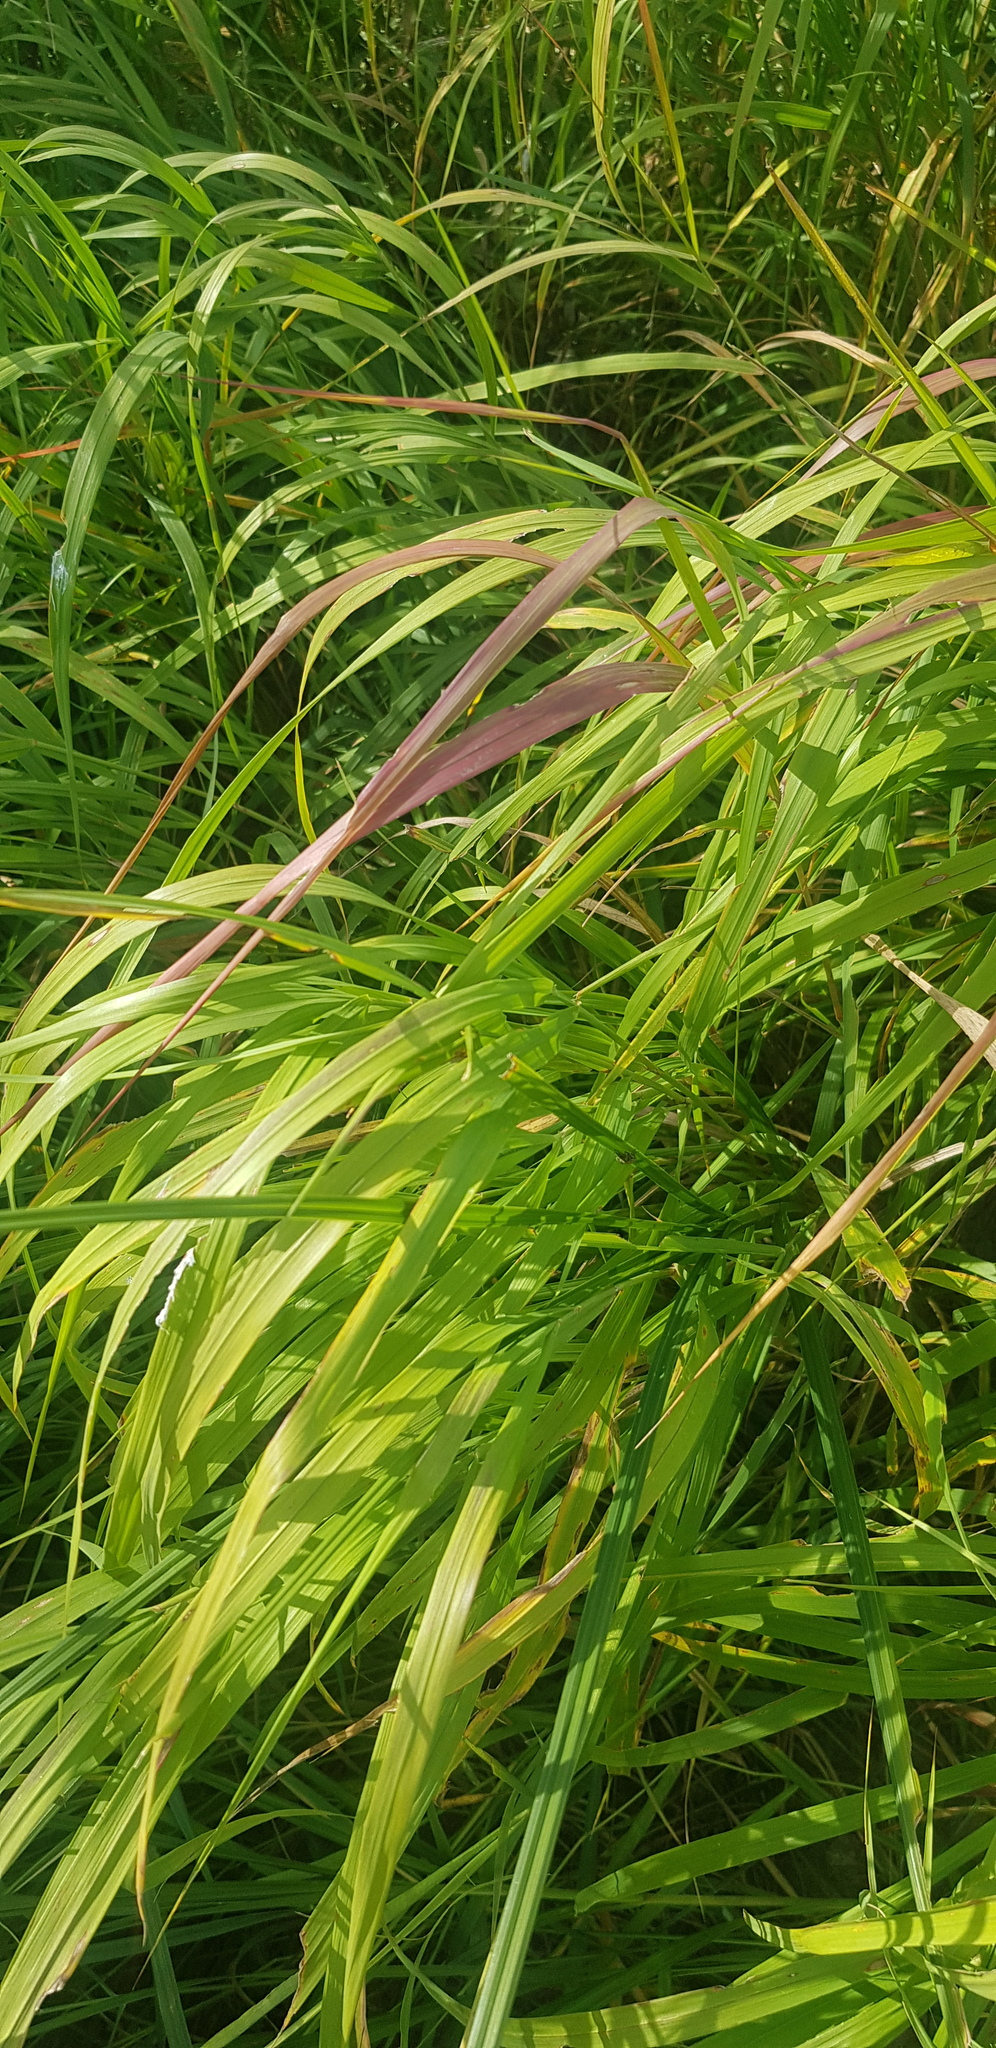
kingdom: Plantae
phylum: Tracheophyta
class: Liliopsida
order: Poales
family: Poaceae
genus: Oryza
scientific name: Oryza sativa
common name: Rice
